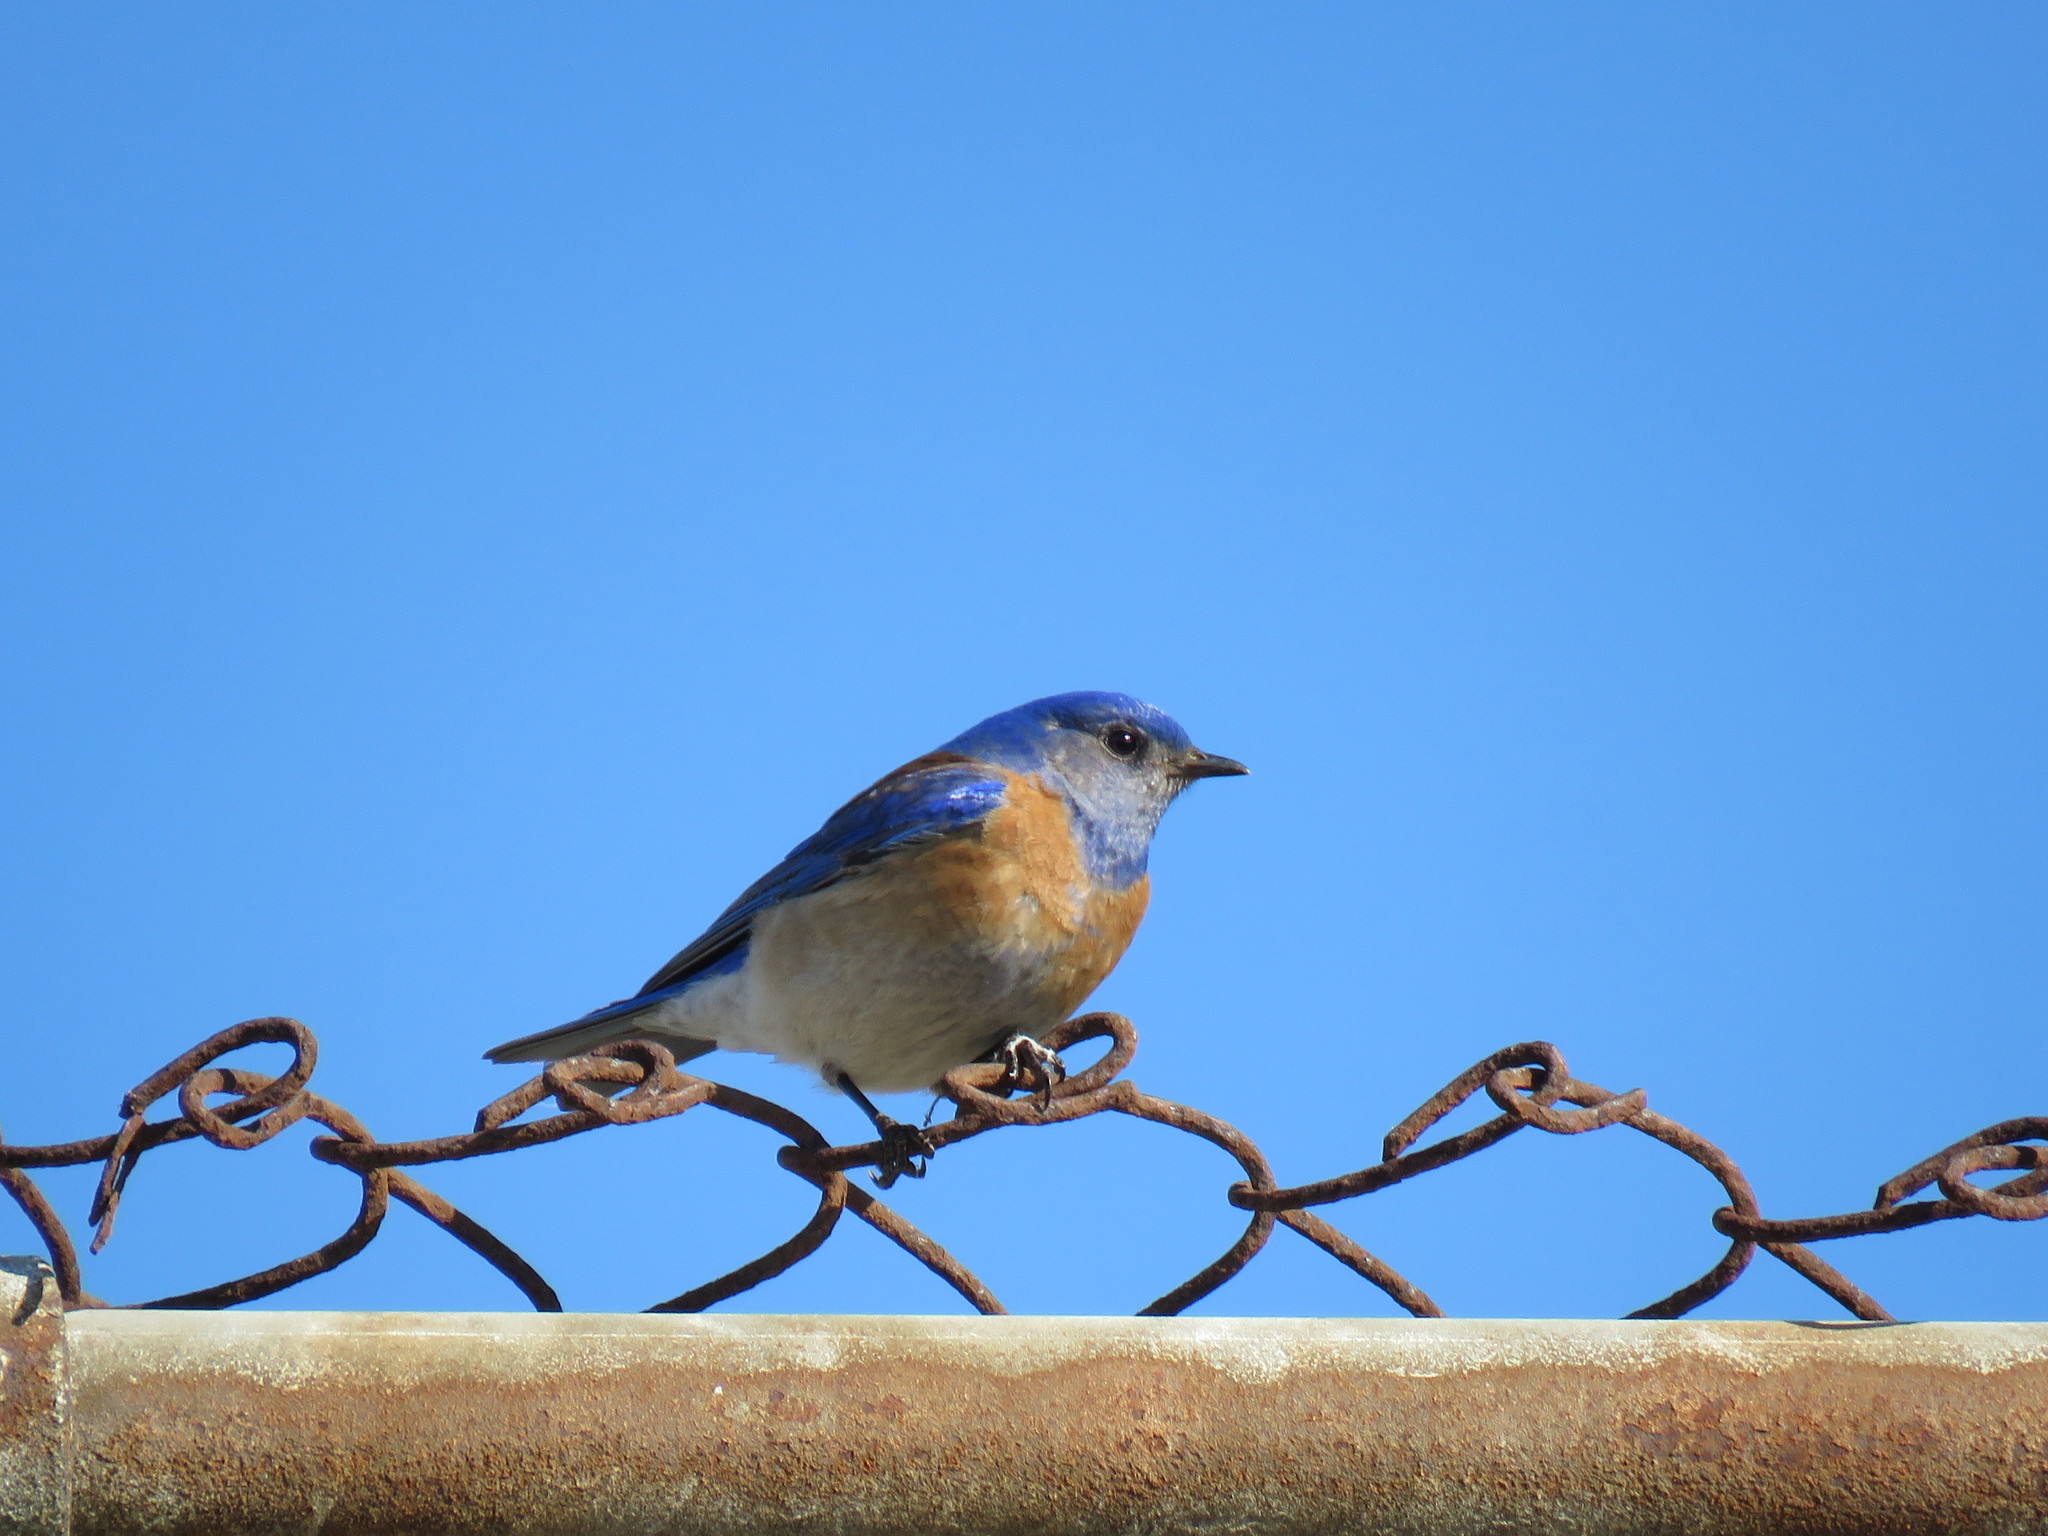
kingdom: Animalia
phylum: Chordata
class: Aves
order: Passeriformes
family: Turdidae
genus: Sialia
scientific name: Sialia mexicana
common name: Western bluebird
